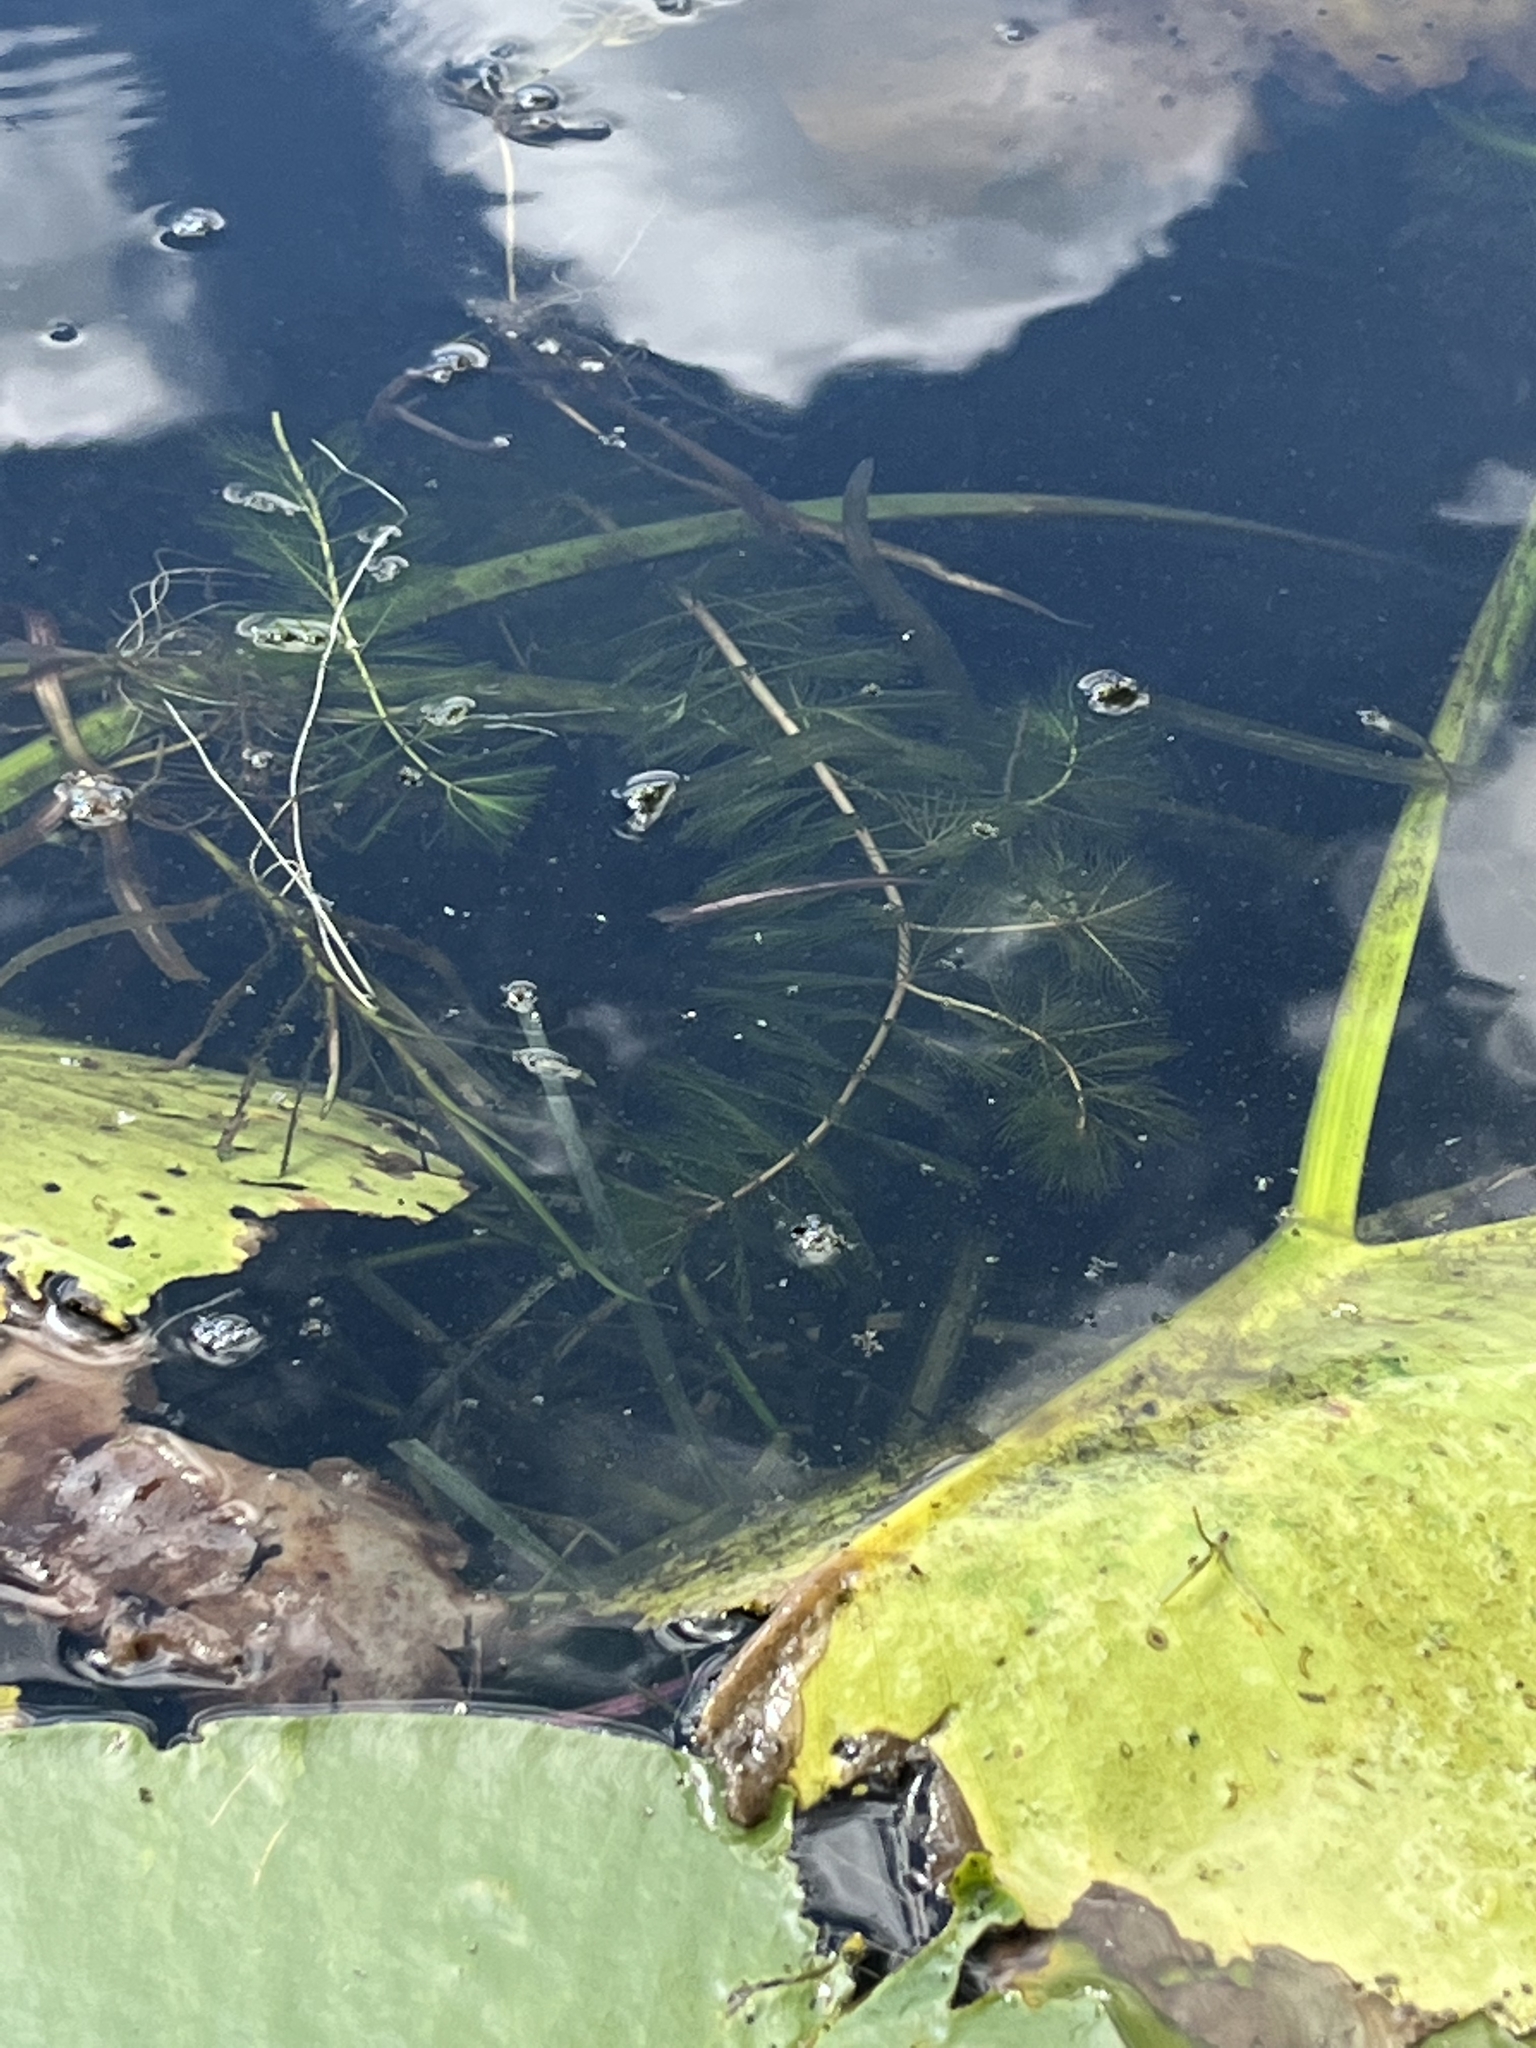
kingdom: Plantae
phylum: Tracheophyta
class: Magnoliopsida
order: Saxifragales
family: Haloragaceae
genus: Myriophyllum
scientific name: Myriophyllum spicatum
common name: Spiked water-milfoil
